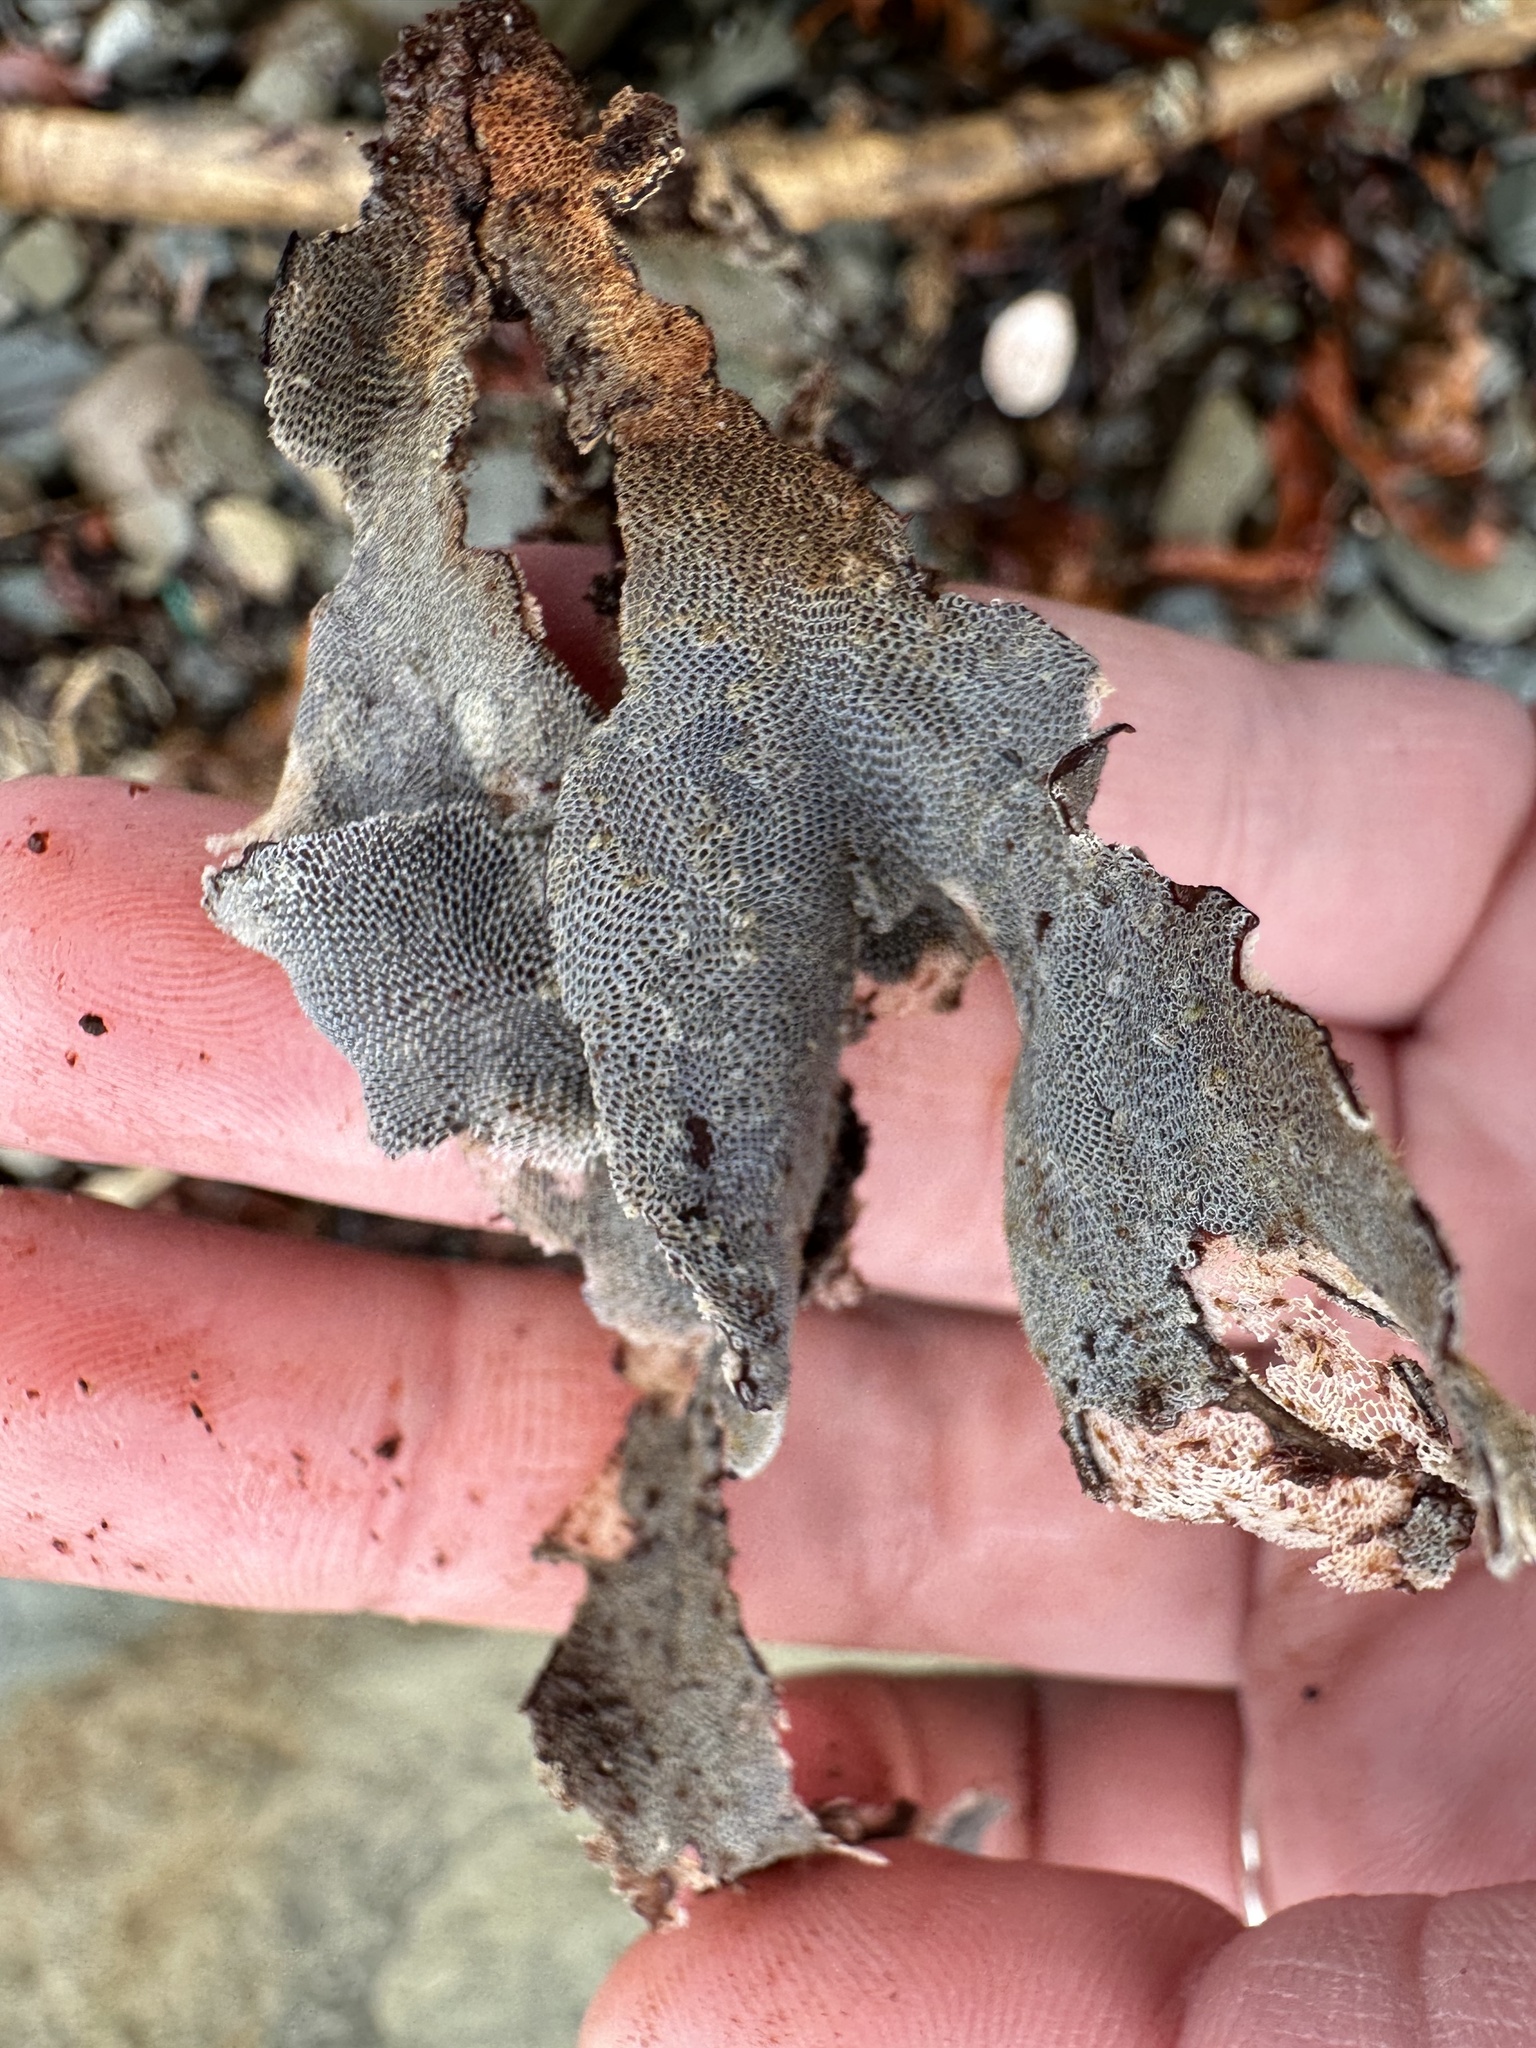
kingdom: Animalia
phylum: Bryozoa
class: Gymnolaemata
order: Cheilostomatida
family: Membraniporidae
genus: Membranipora
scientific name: Membranipora membranacea
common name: Sea mat
